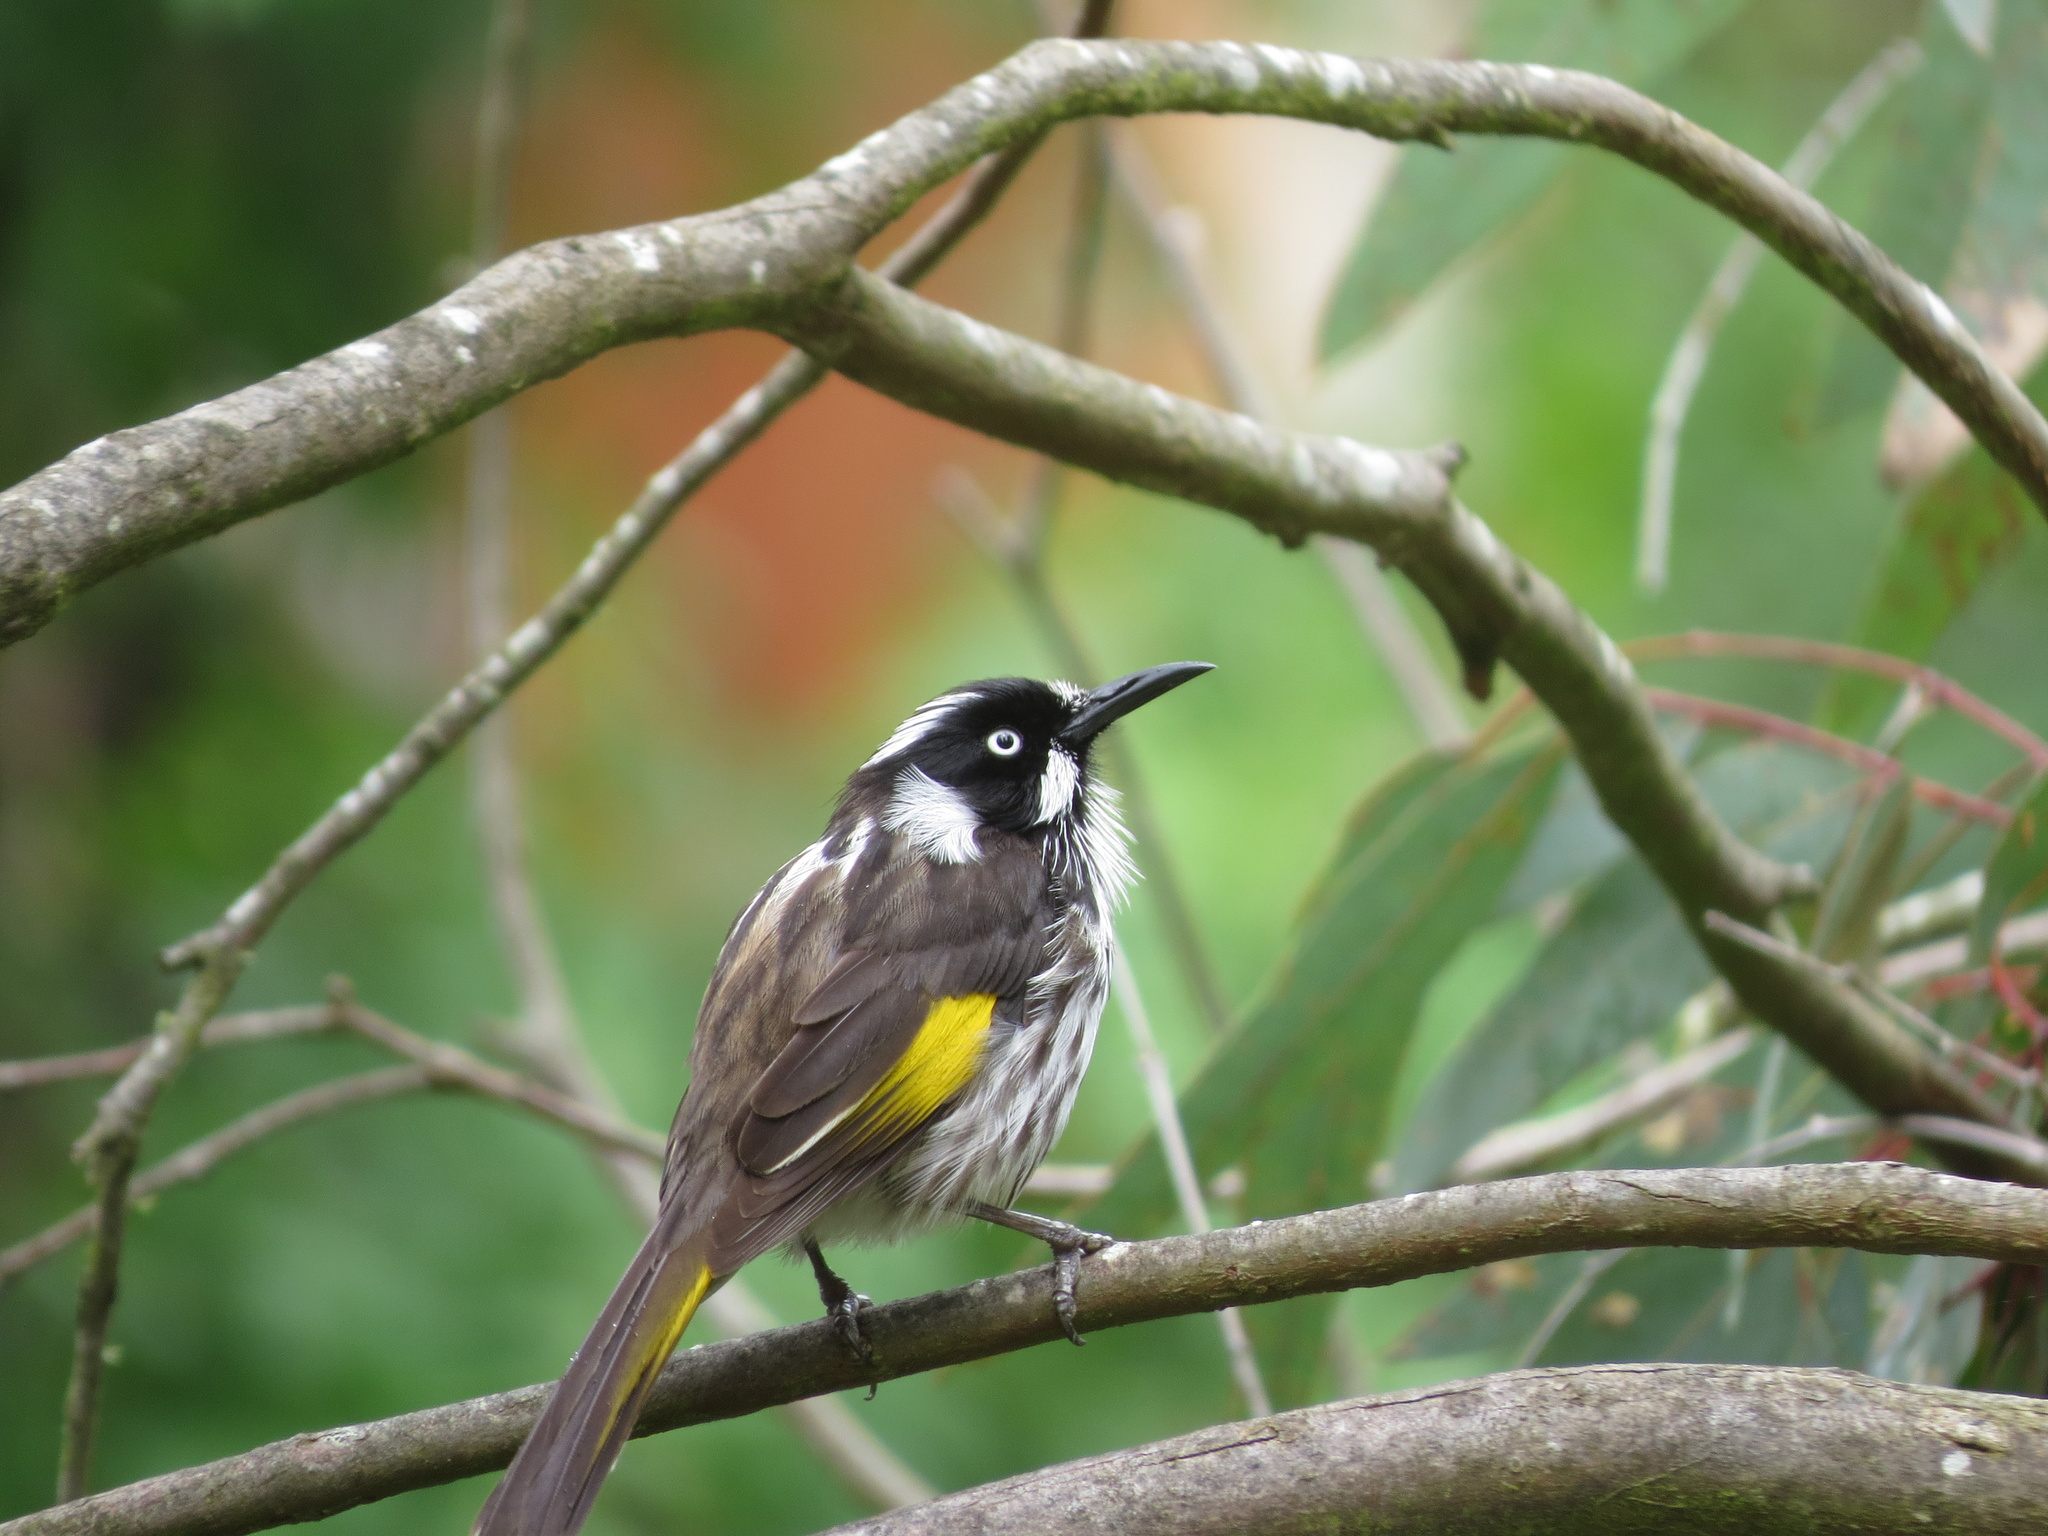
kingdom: Animalia
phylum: Chordata
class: Aves
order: Passeriformes
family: Meliphagidae
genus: Phylidonyris
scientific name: Phylidonyris novaehollandiae
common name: New holland honeyeater
